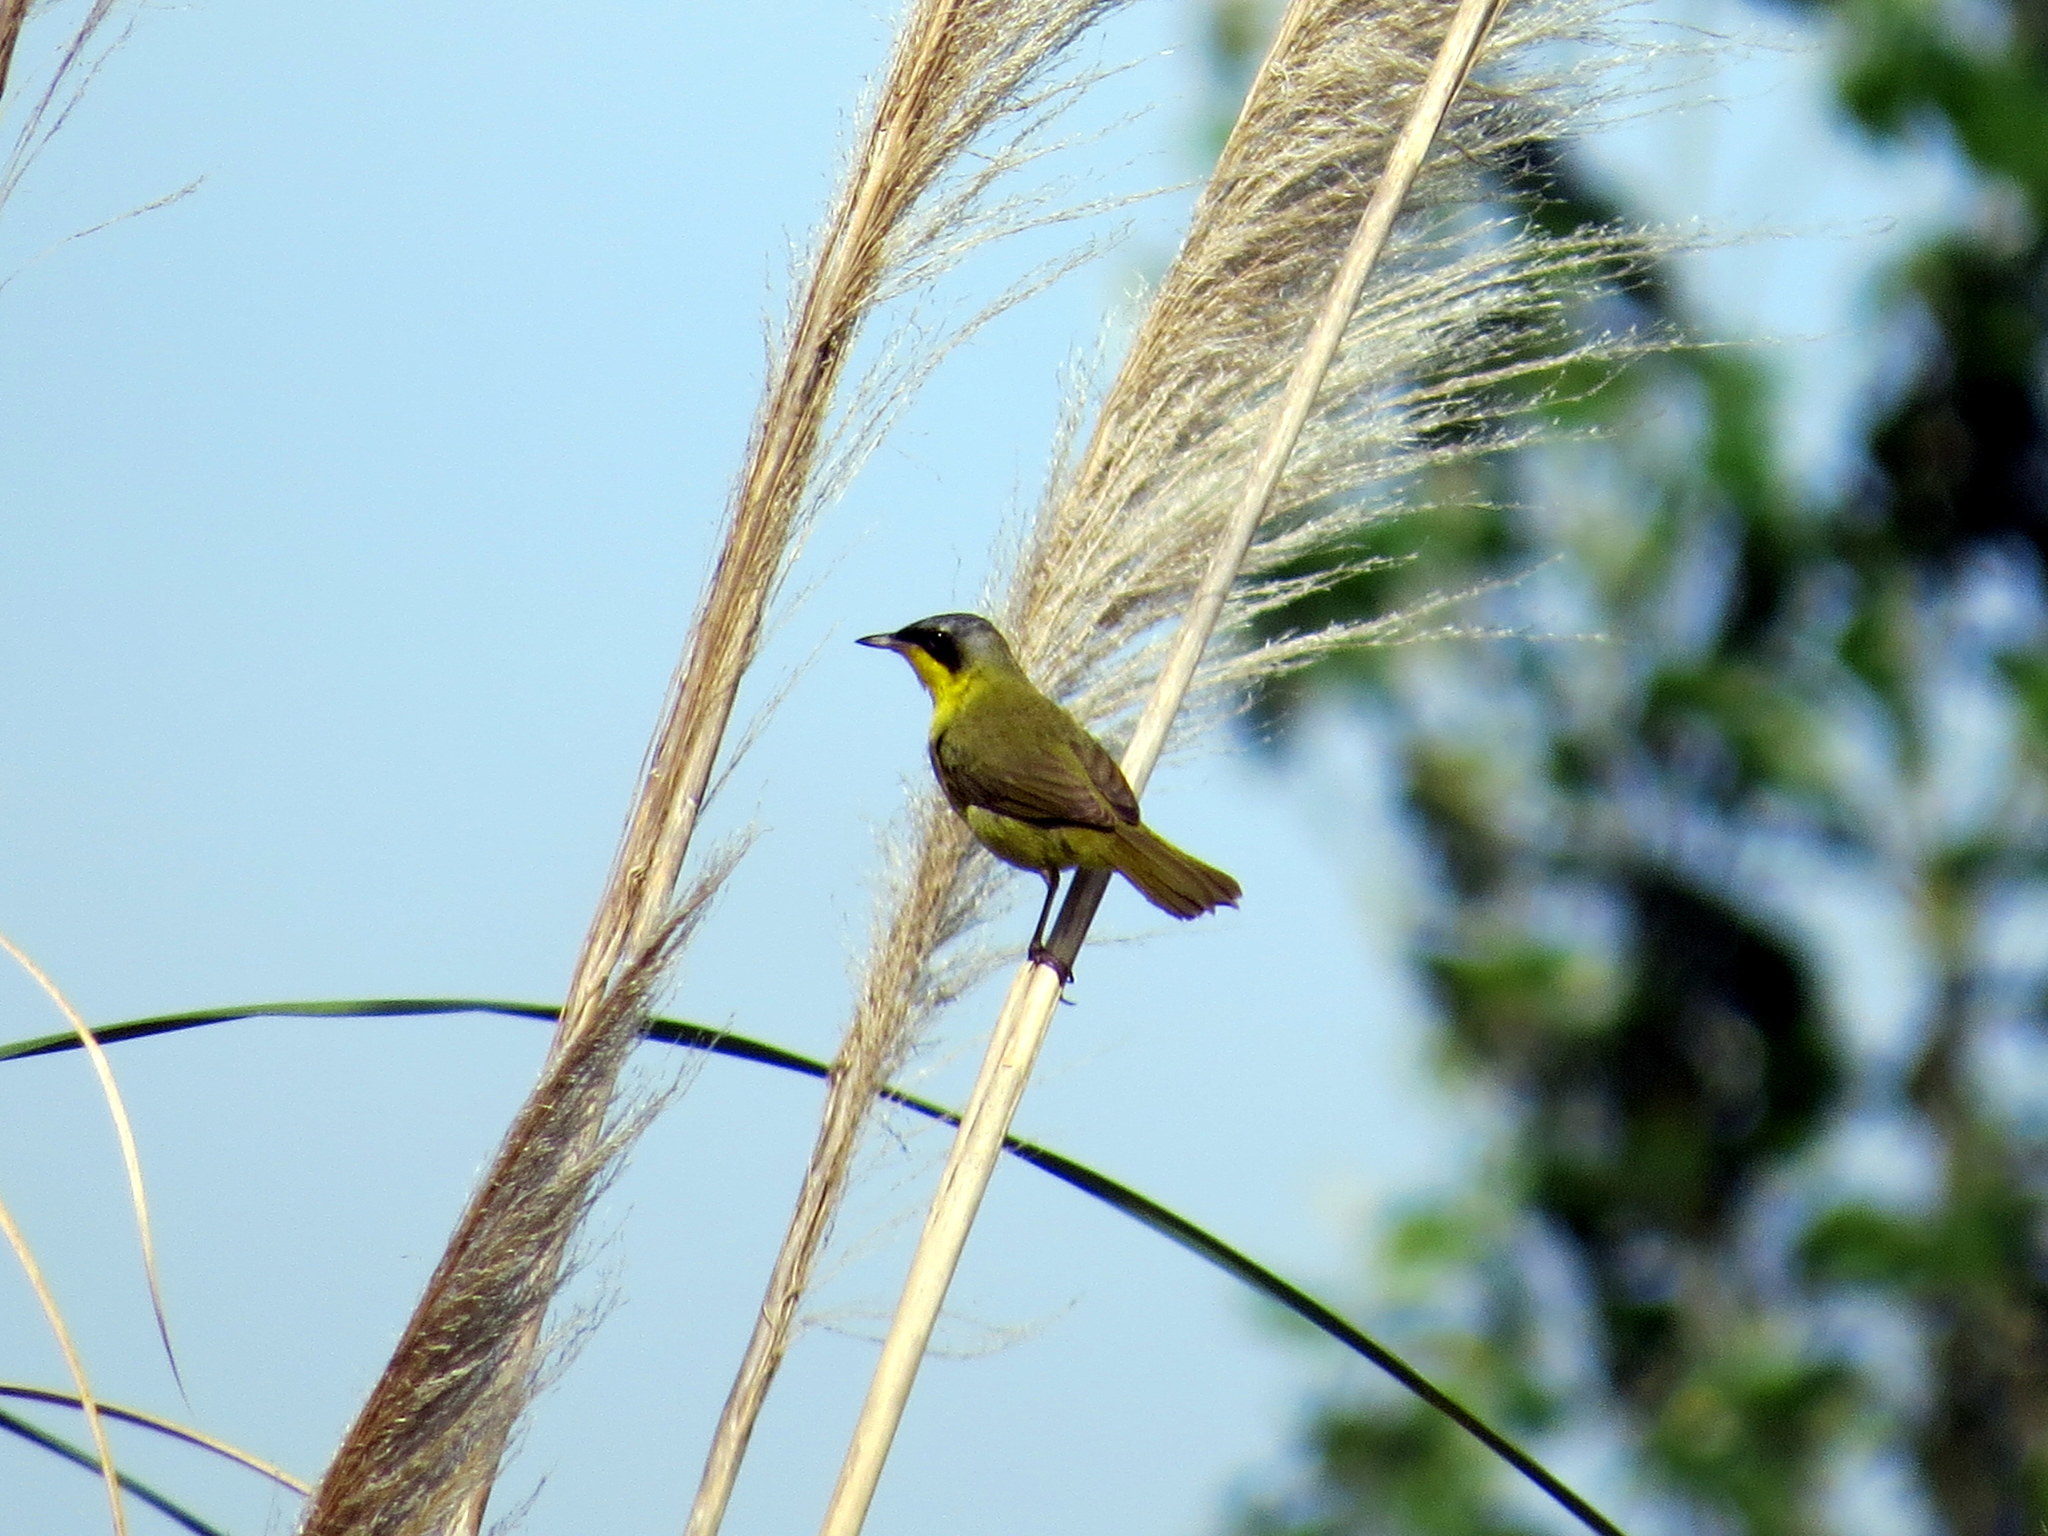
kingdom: Animalia
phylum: Chordata
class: Aves
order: Passeriformes
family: Parulidae
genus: Geothlypis
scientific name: Geothlypis velata
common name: Southern yellowthroat
